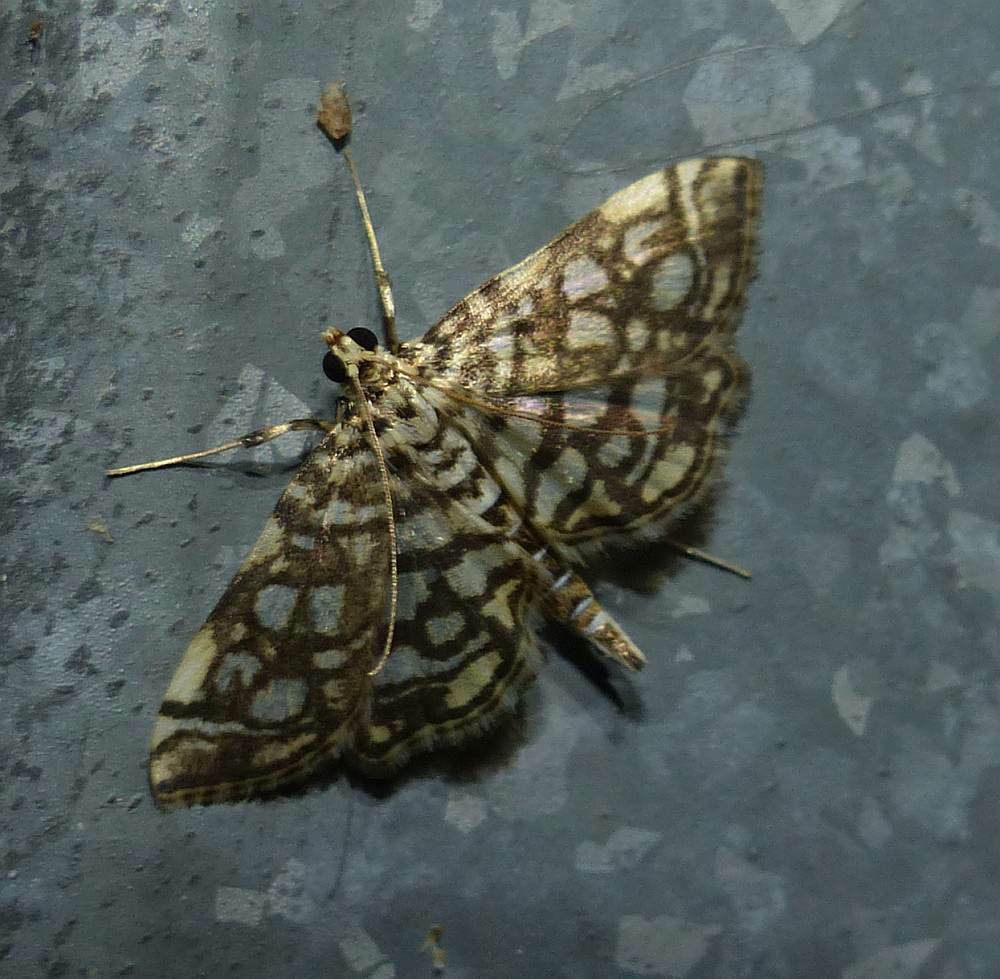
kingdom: Animalia
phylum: Arthropoda
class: Insecta
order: Lepidoptera
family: Crambidae
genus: Lygropia
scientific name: Lygropia rivulalis
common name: Bog lygropia moth
